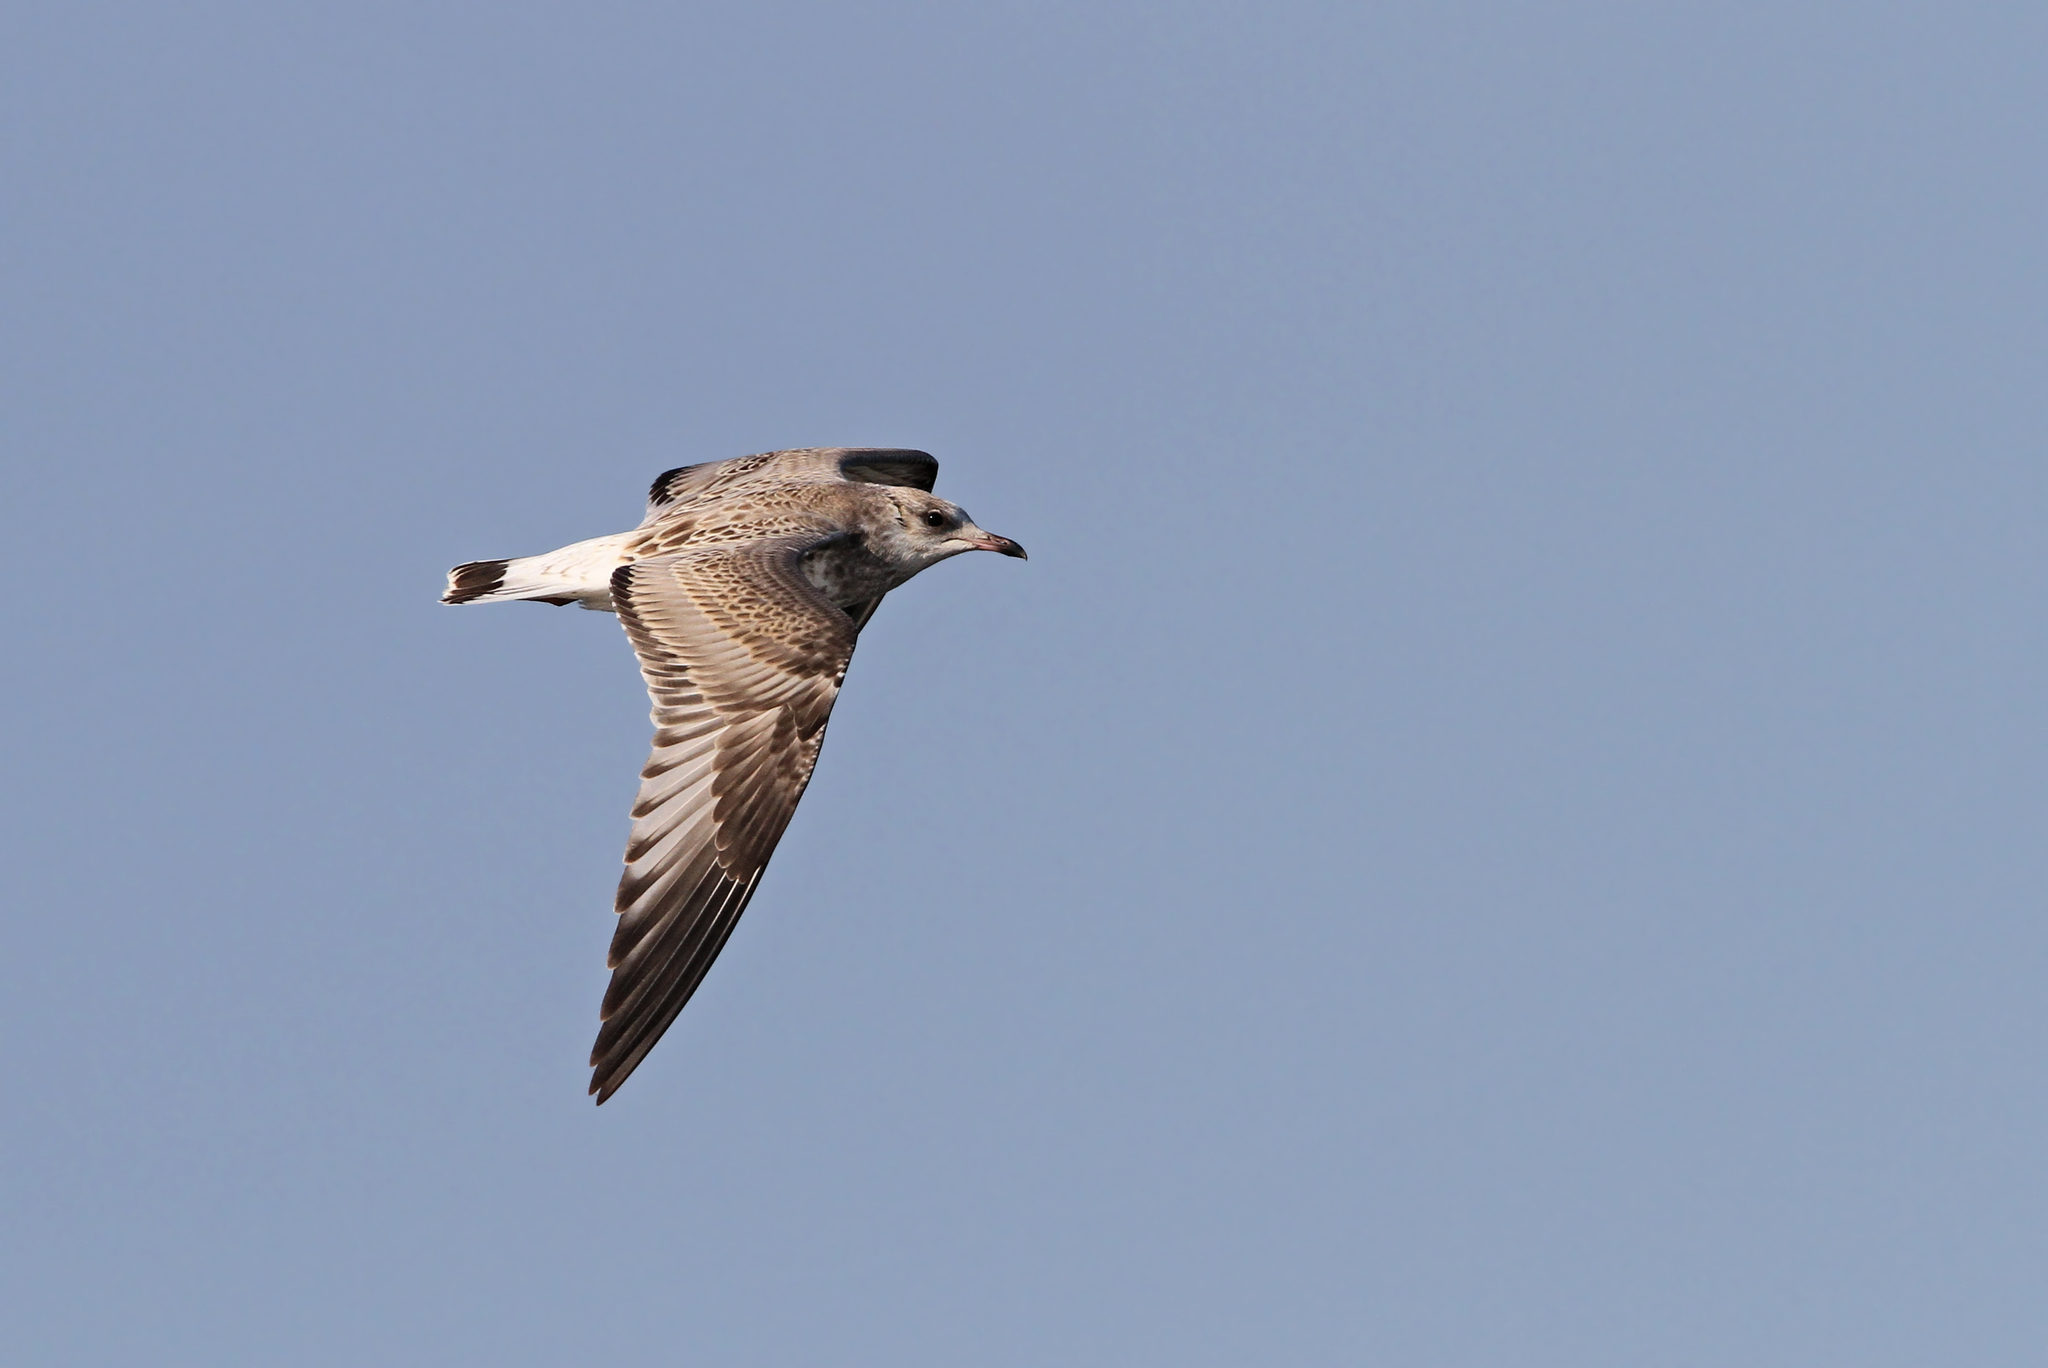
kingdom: Animalia
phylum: Chordata
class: Aves
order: Charadriiformes
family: Laridae
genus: Larus
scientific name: Larus canus
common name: Mew gull
